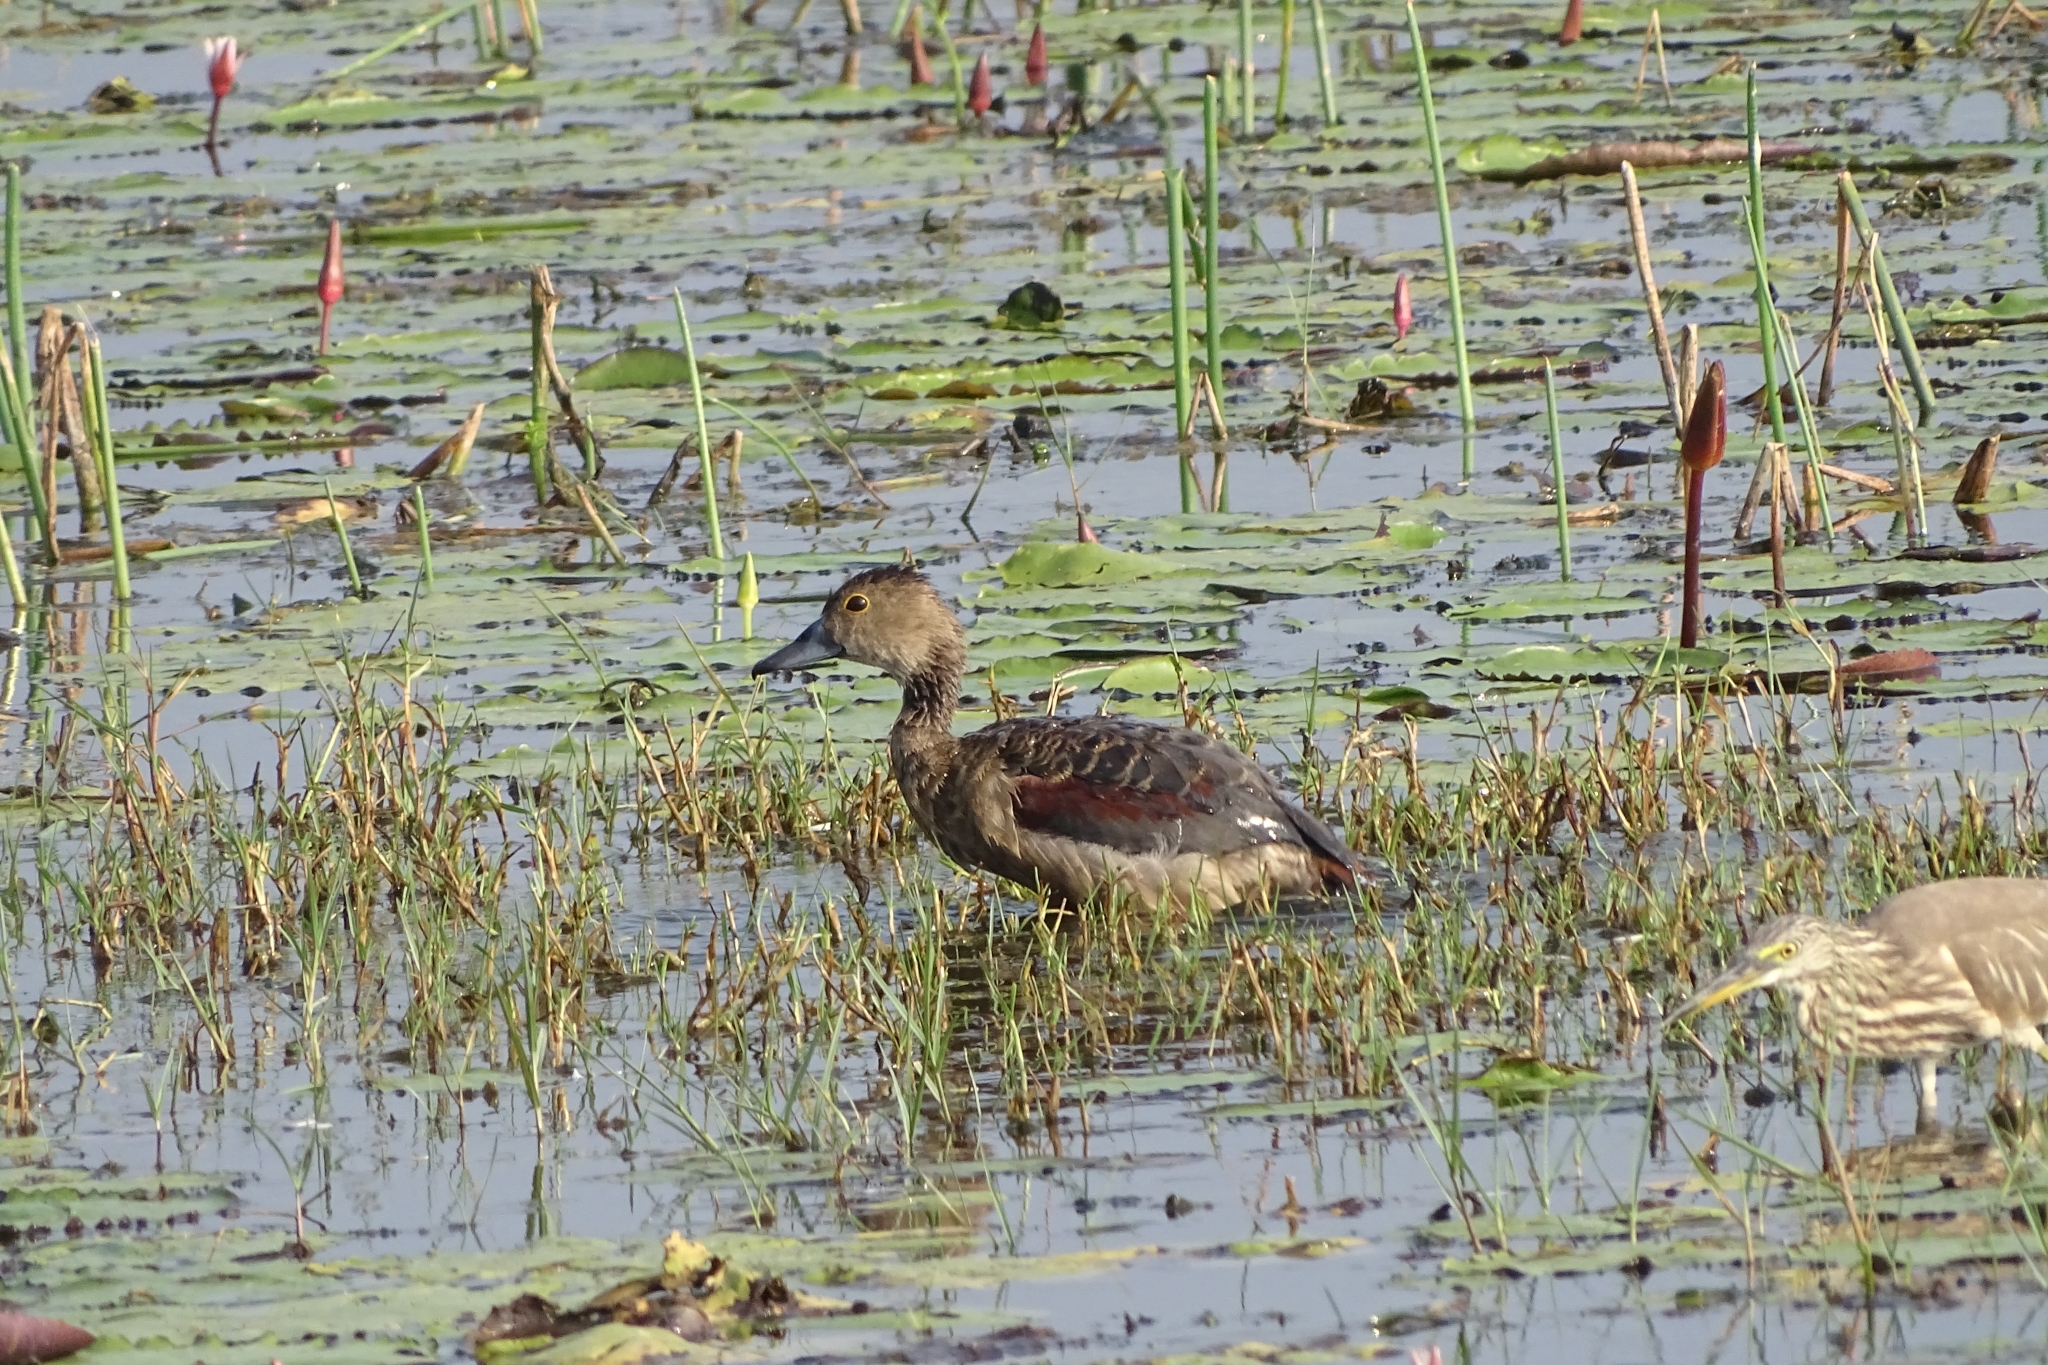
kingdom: Animalia
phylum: Chordata
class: Aves
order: Anseriformes
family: Anatidae
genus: Dendrocygna
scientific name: Dendrocygna javanica
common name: Lesser whistling-duck
